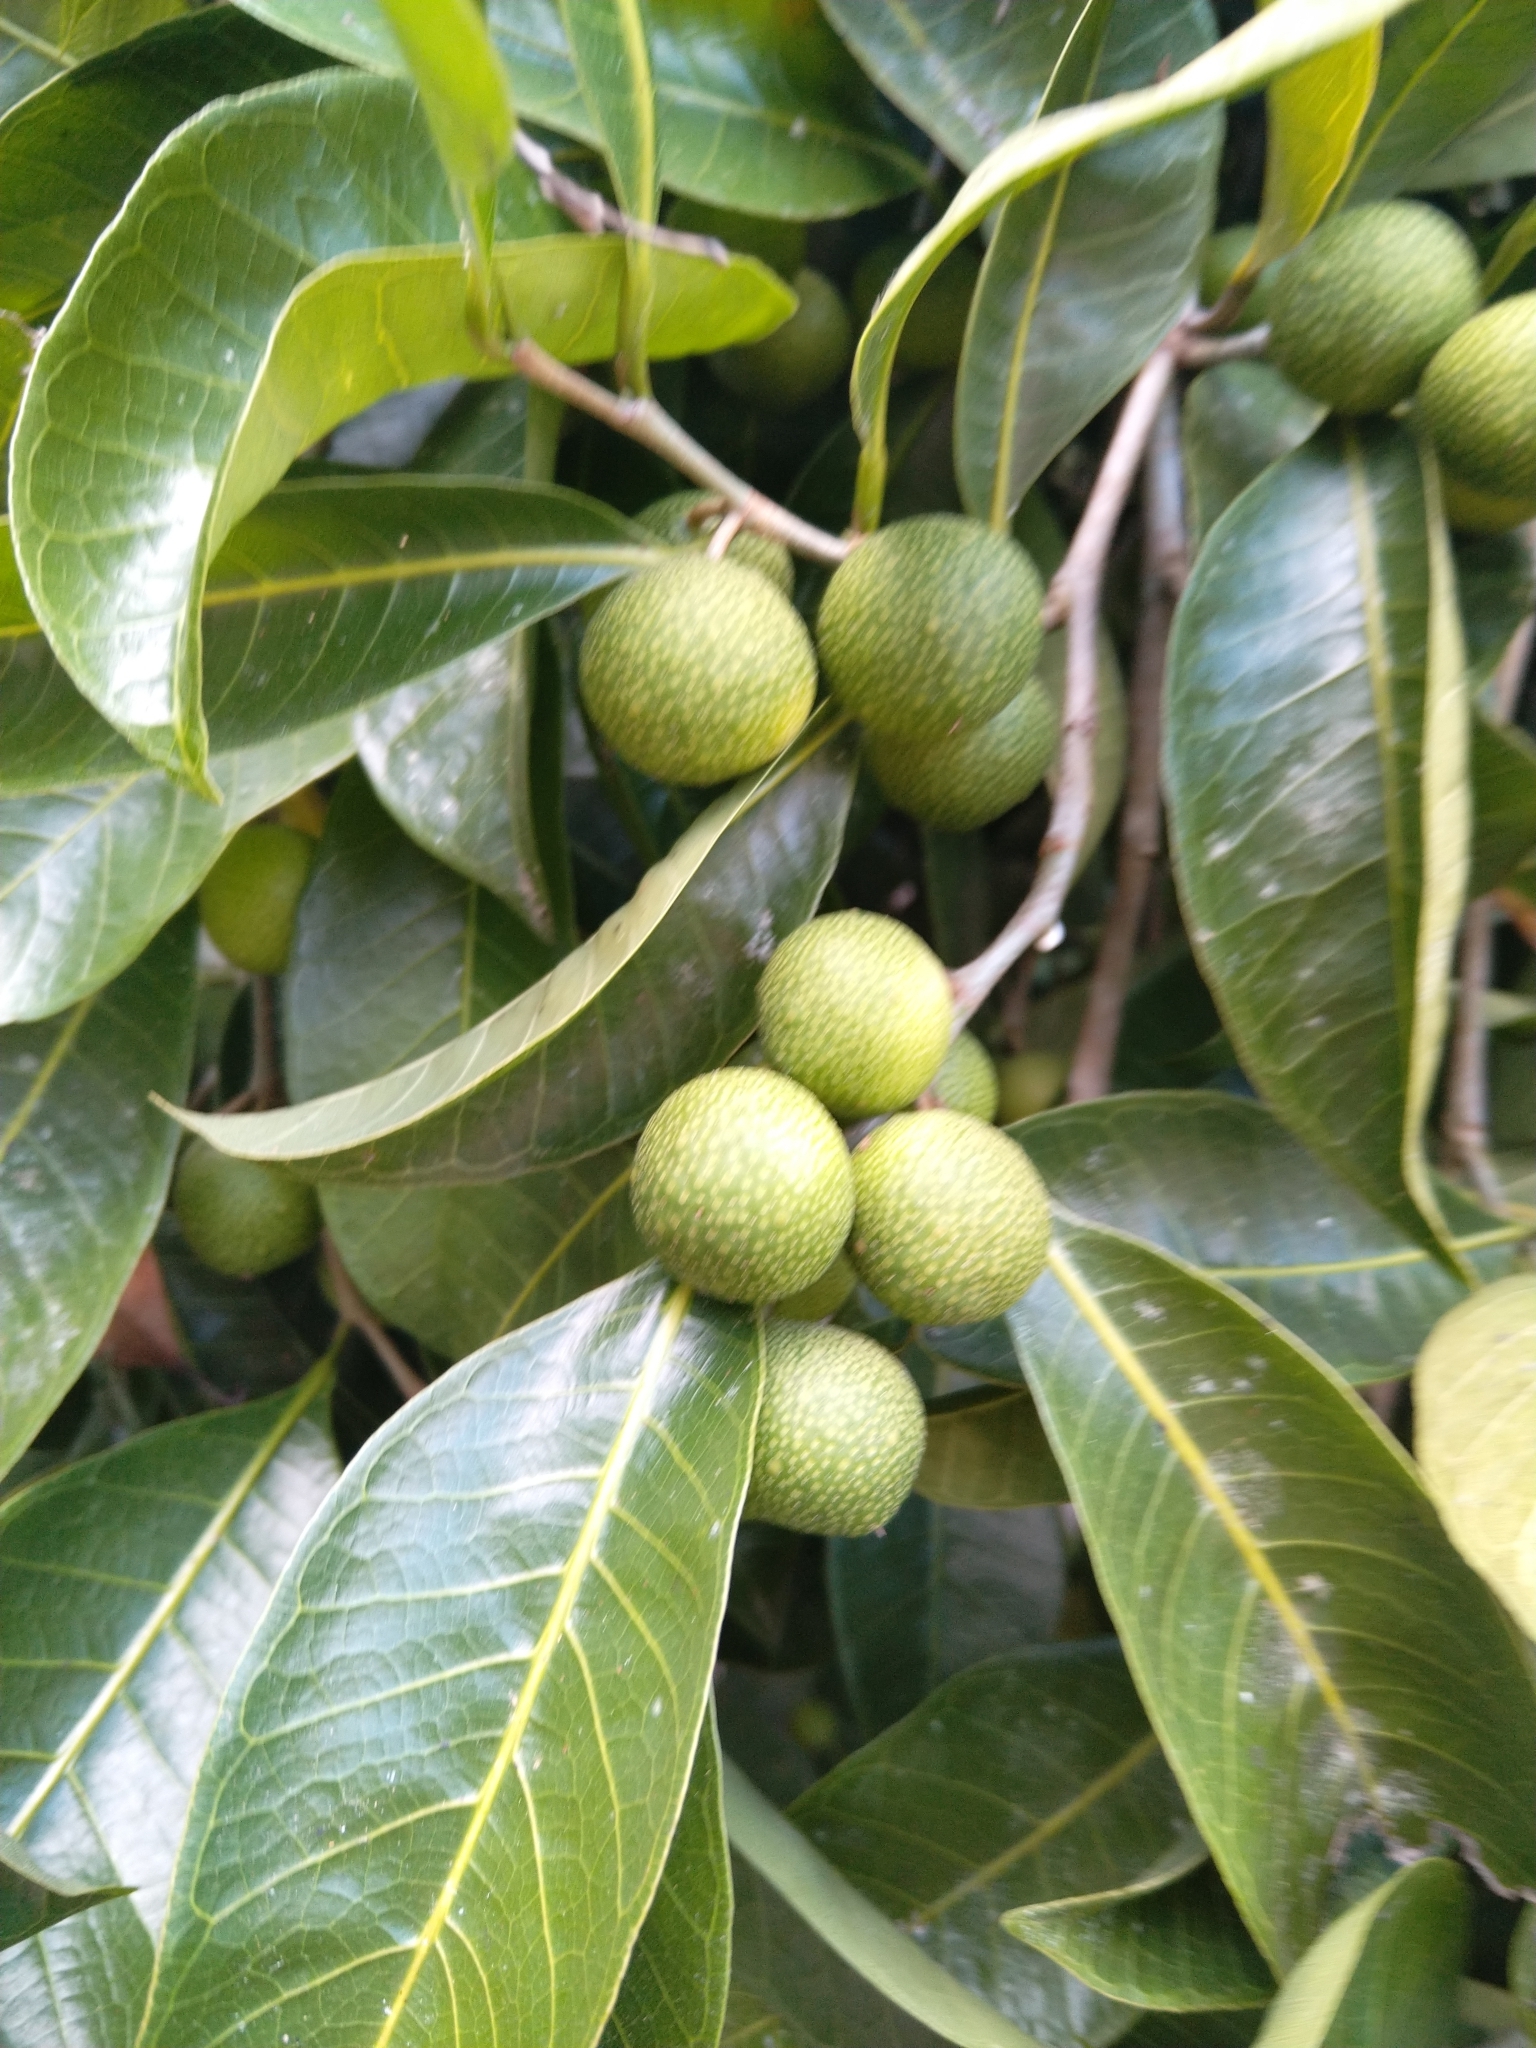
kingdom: Plantae
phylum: Tracheophyta
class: Magnoliopsida
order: Rosales
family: Moraceae
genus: Brosimum
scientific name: Brosimum alicastrum
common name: Breadnut
